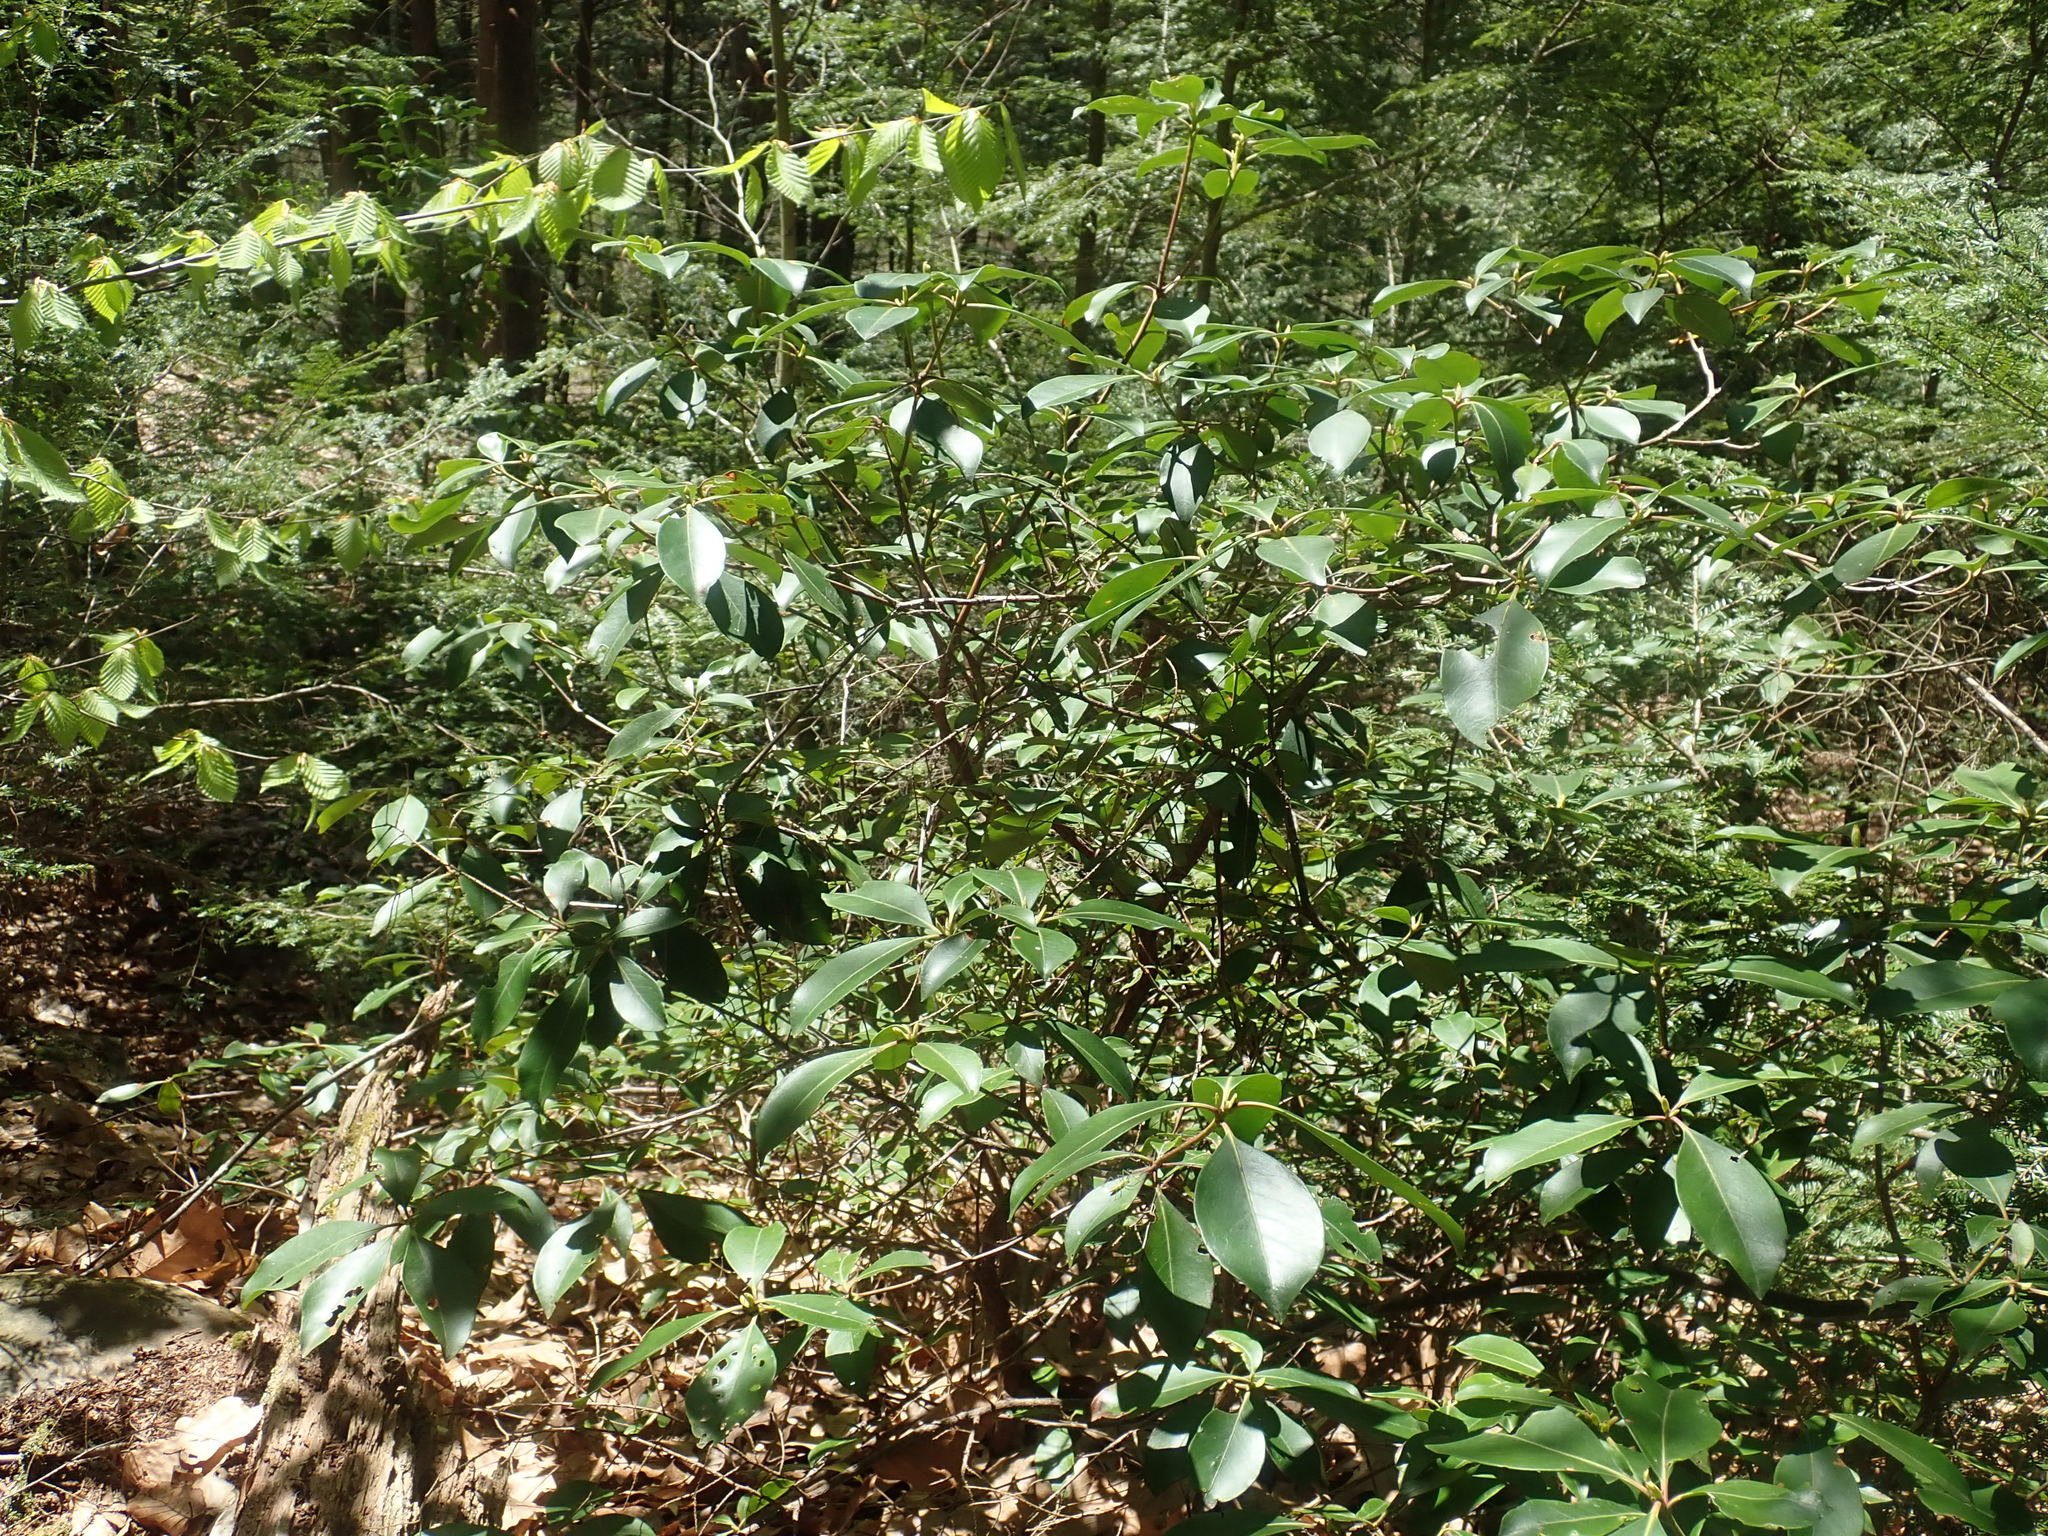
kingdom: Plantae
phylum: Tracheophyta
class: Magnoliopsida
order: Ericales
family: Ericaceae
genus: Kalmia
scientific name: Kalmia latifolia
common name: Mountain-laurel
